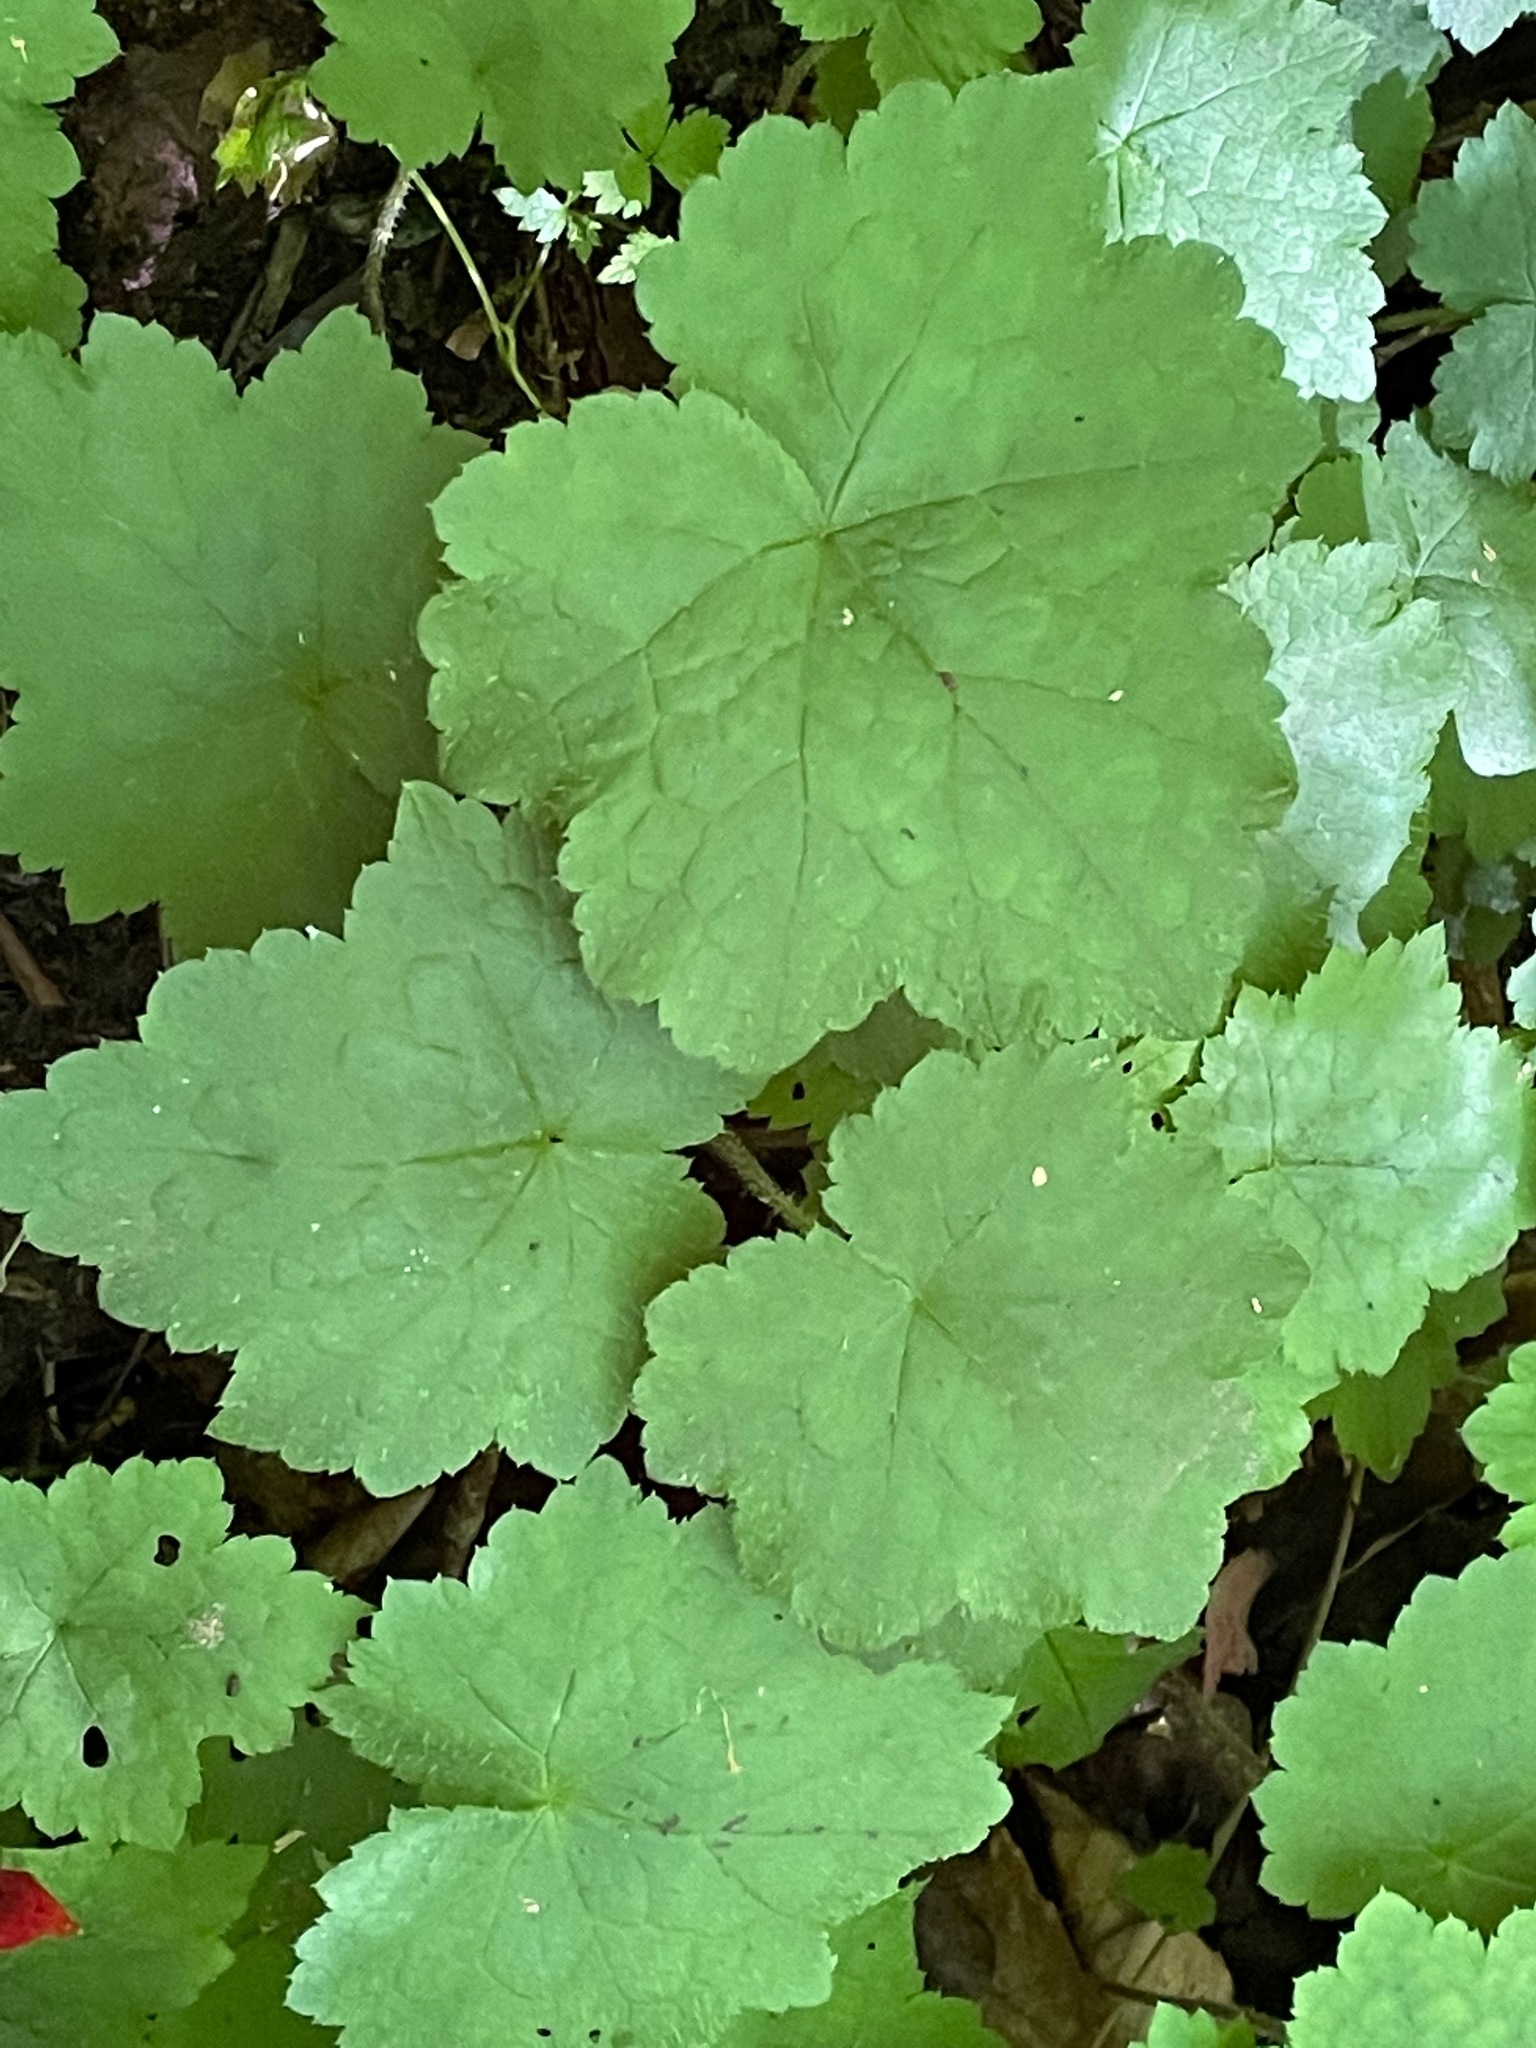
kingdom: Plantae
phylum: Tracheophyta
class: Magnoliopsida
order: Saxifragales
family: Saxifragaceae
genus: Tiarella
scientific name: Tiarella stolonifera
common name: Stoloniferous foamflower
